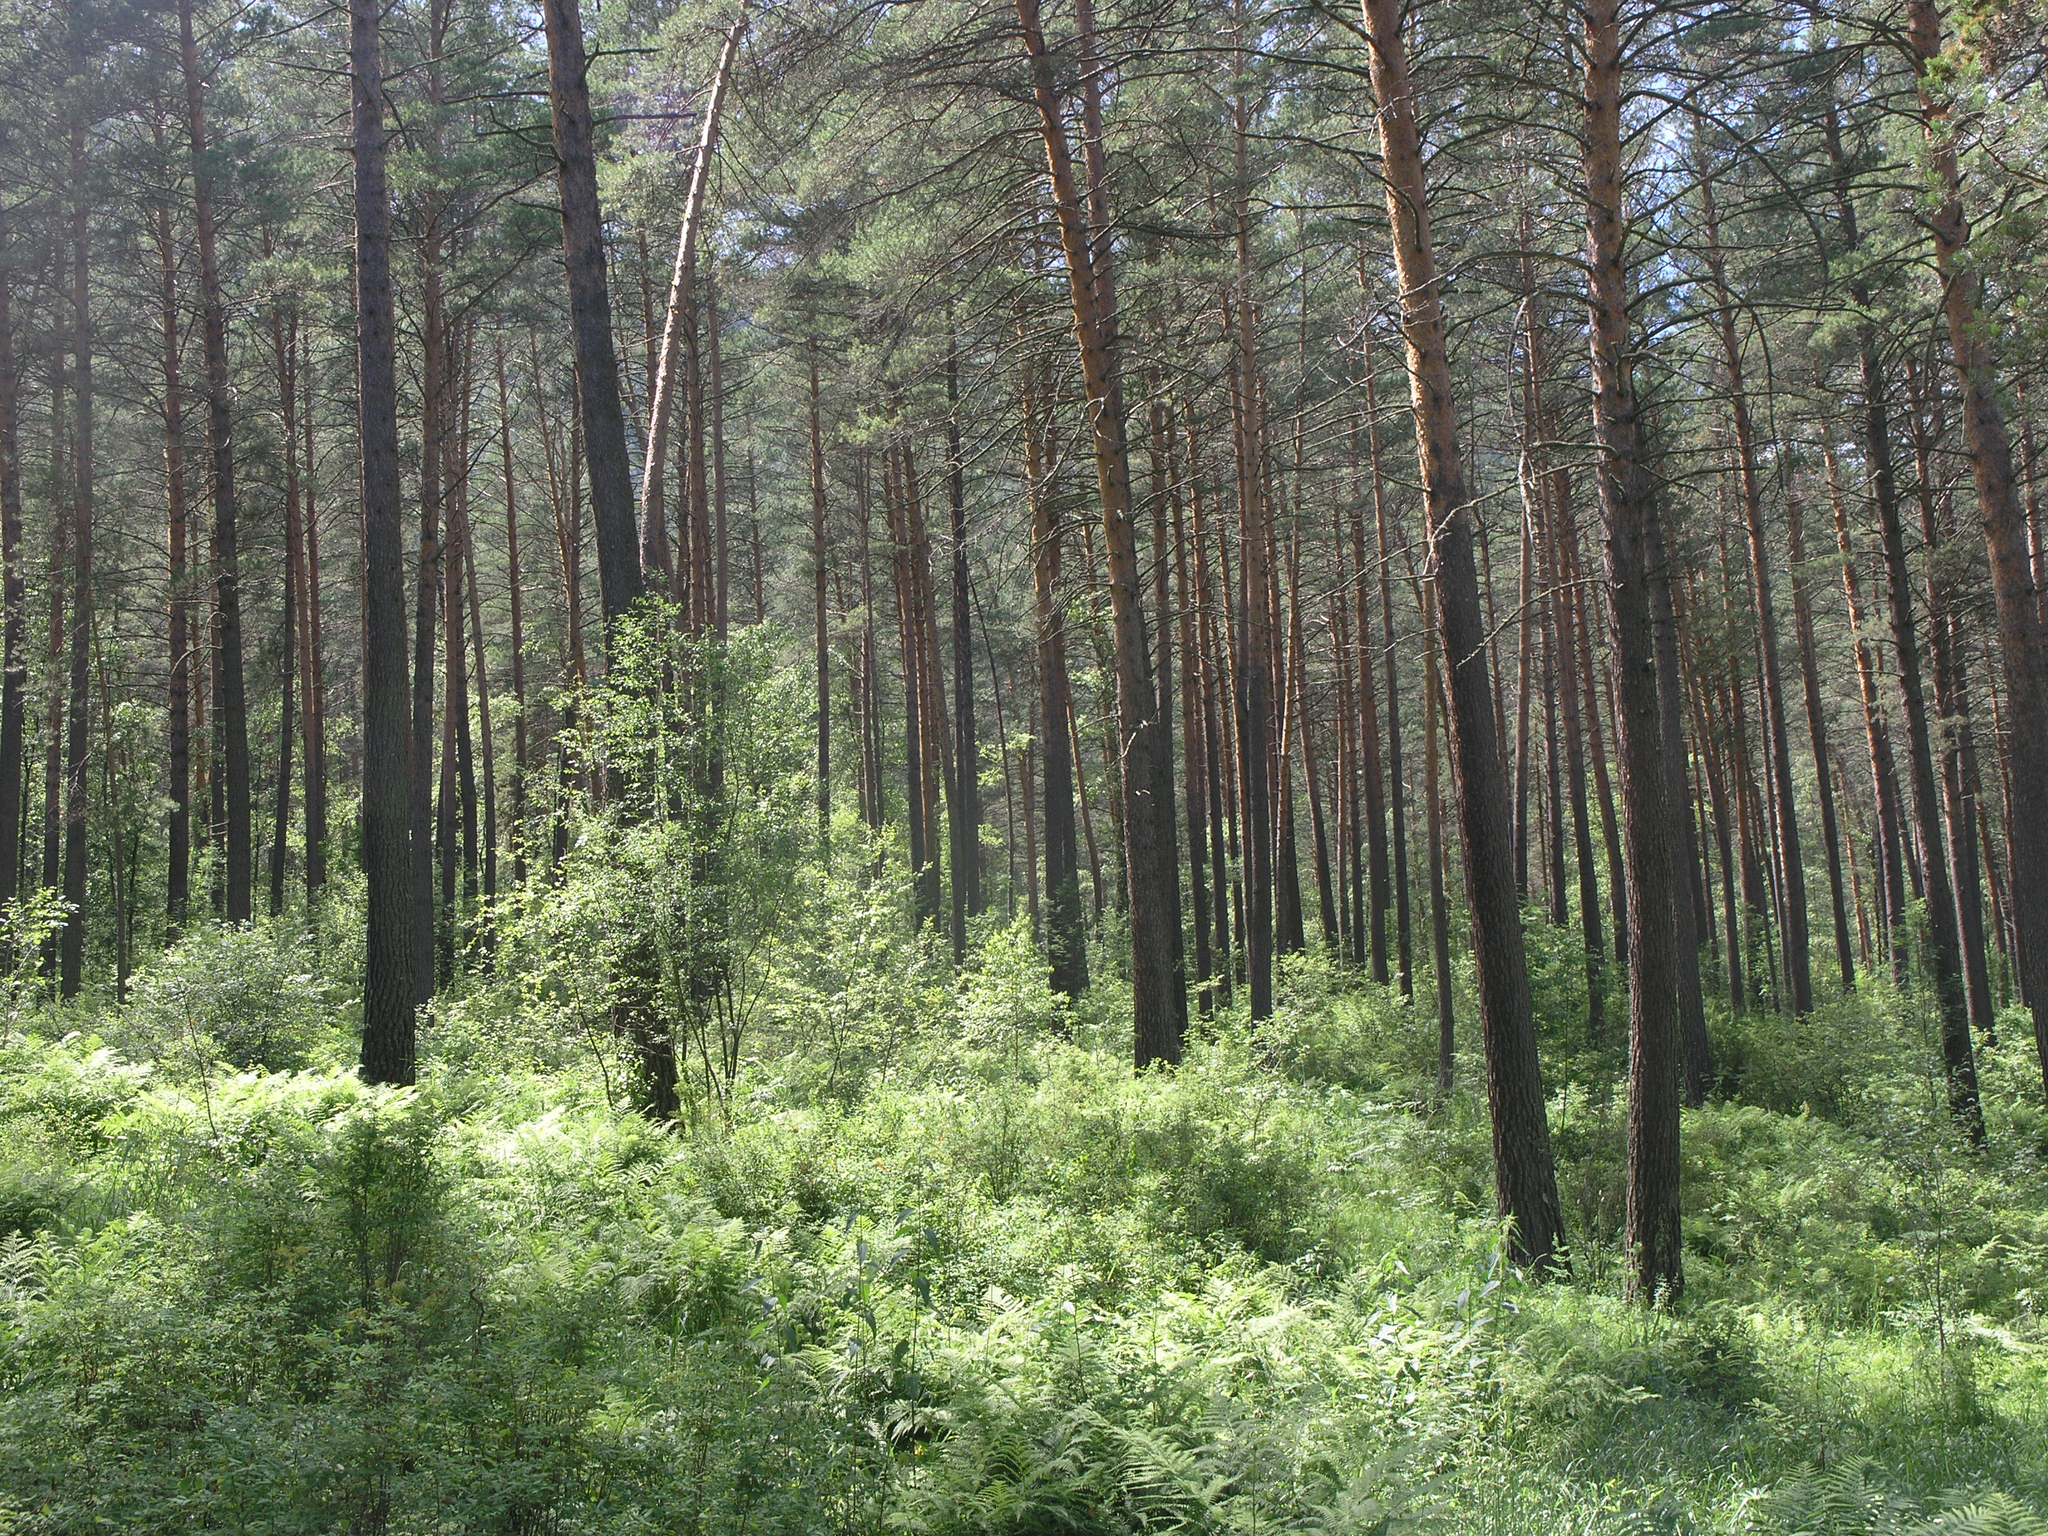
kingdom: Plantae
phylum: Tracheophyta
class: Pinopsida
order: Pinales
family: Pinaceae
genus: Pinus
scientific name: Pinus sylvestris
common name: Scots pine
